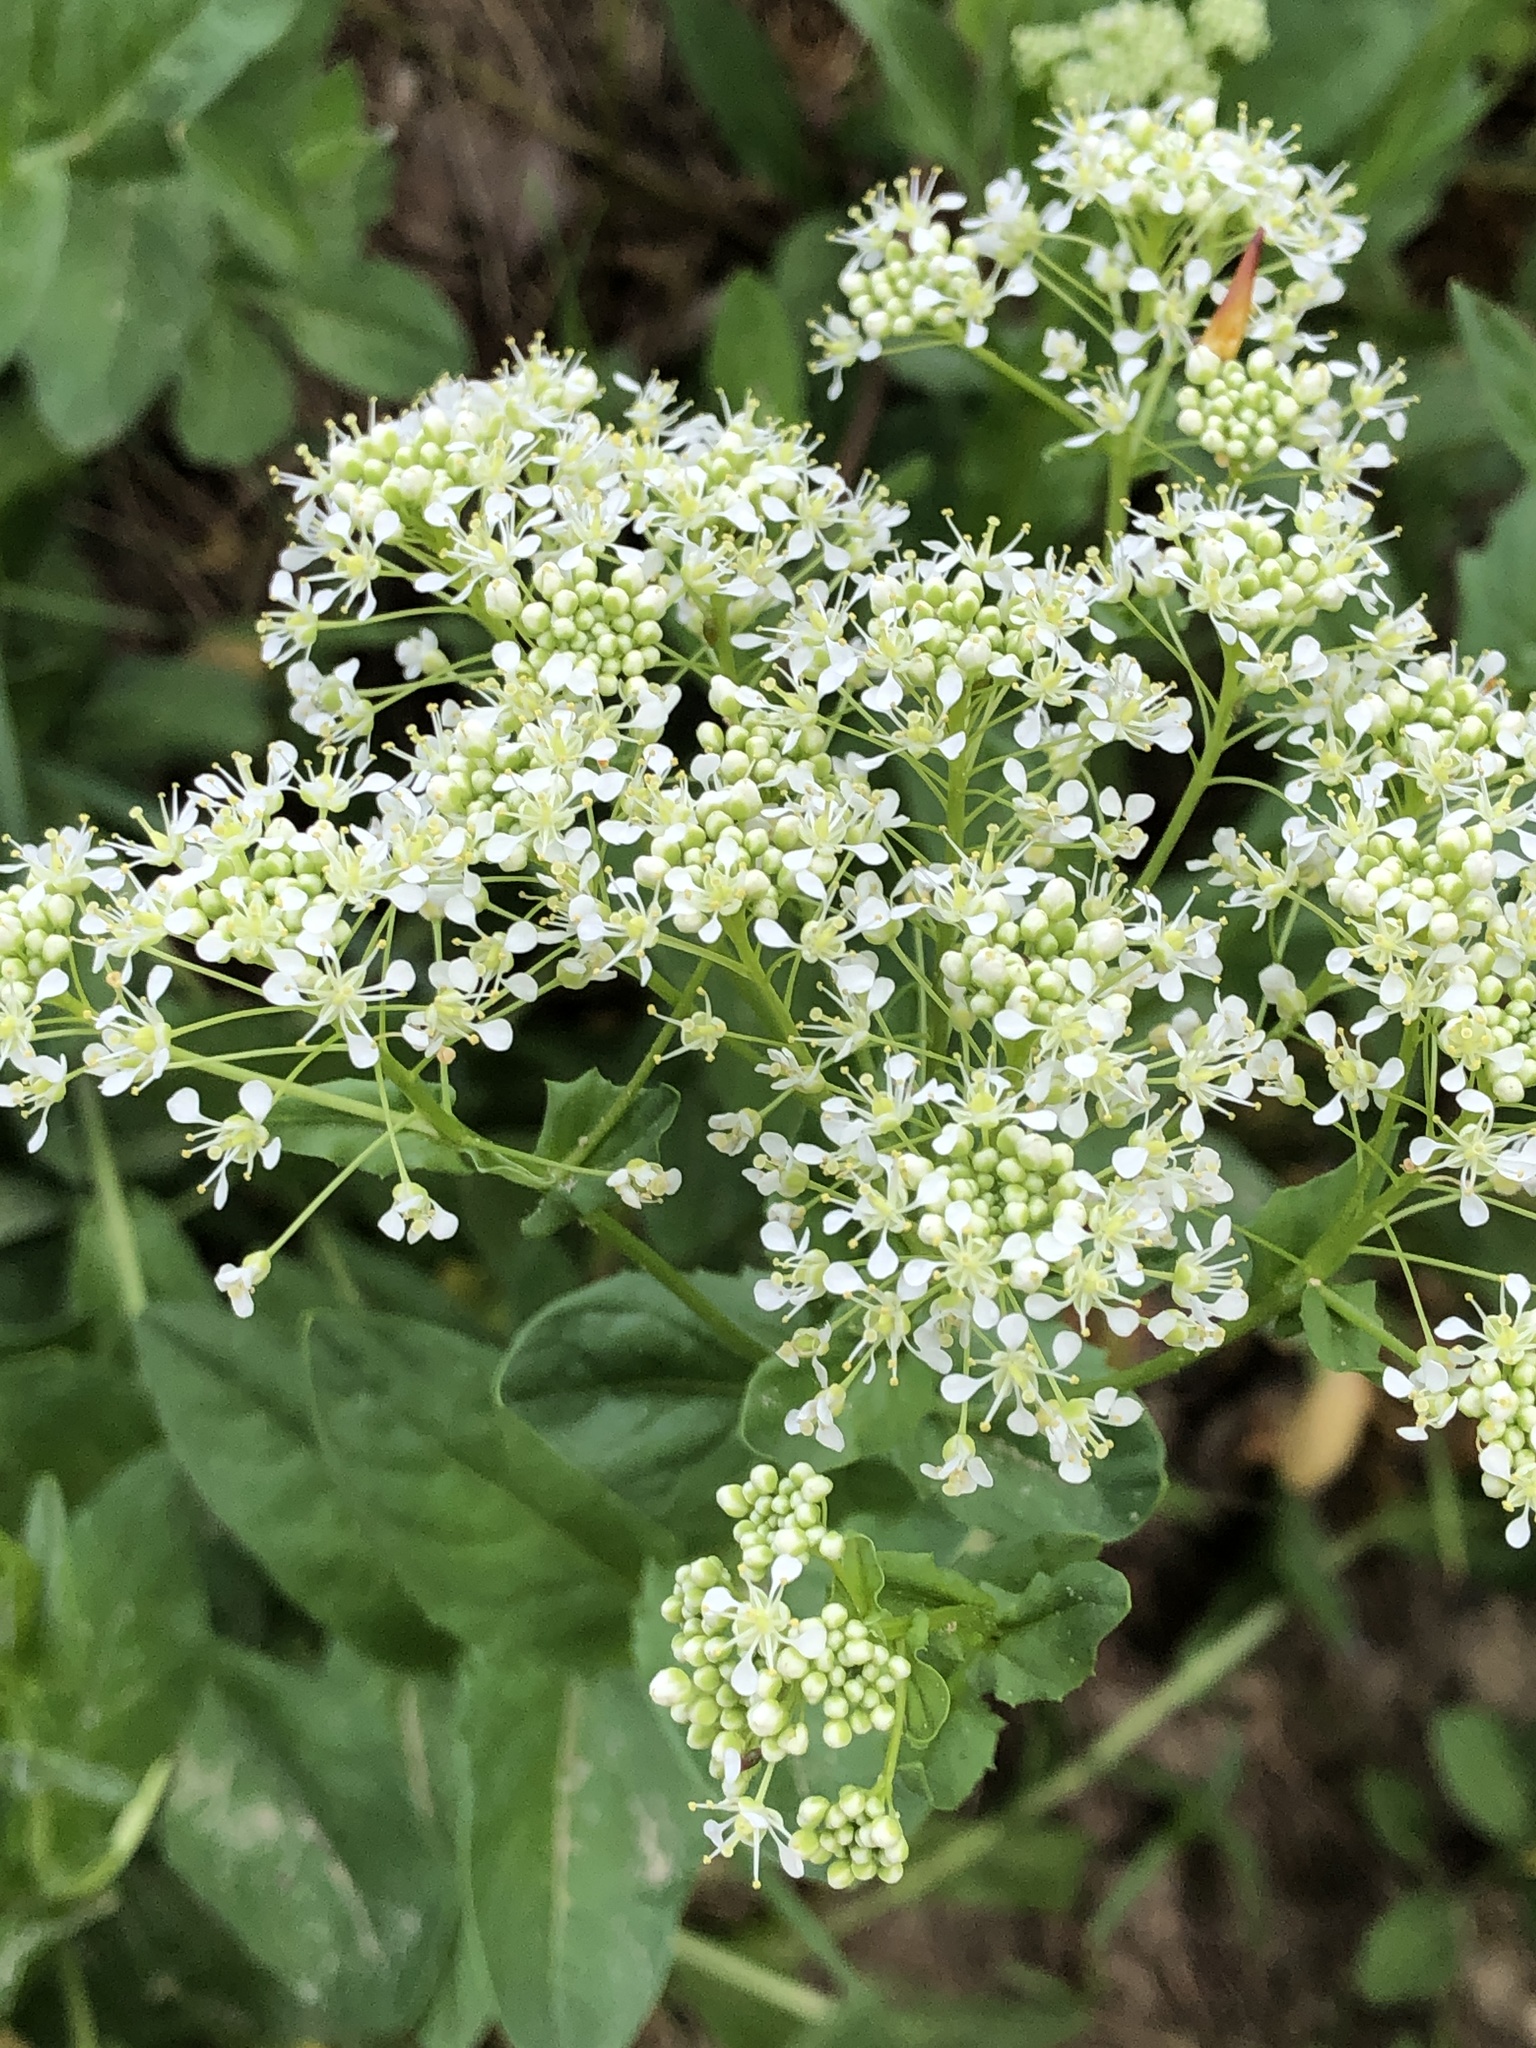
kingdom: Plantae
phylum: Tracheophyta
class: Magnoliopsida
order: Brassicales
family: Brassicaceae
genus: Lepidium
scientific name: Lepidium draba
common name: Hoary cress
